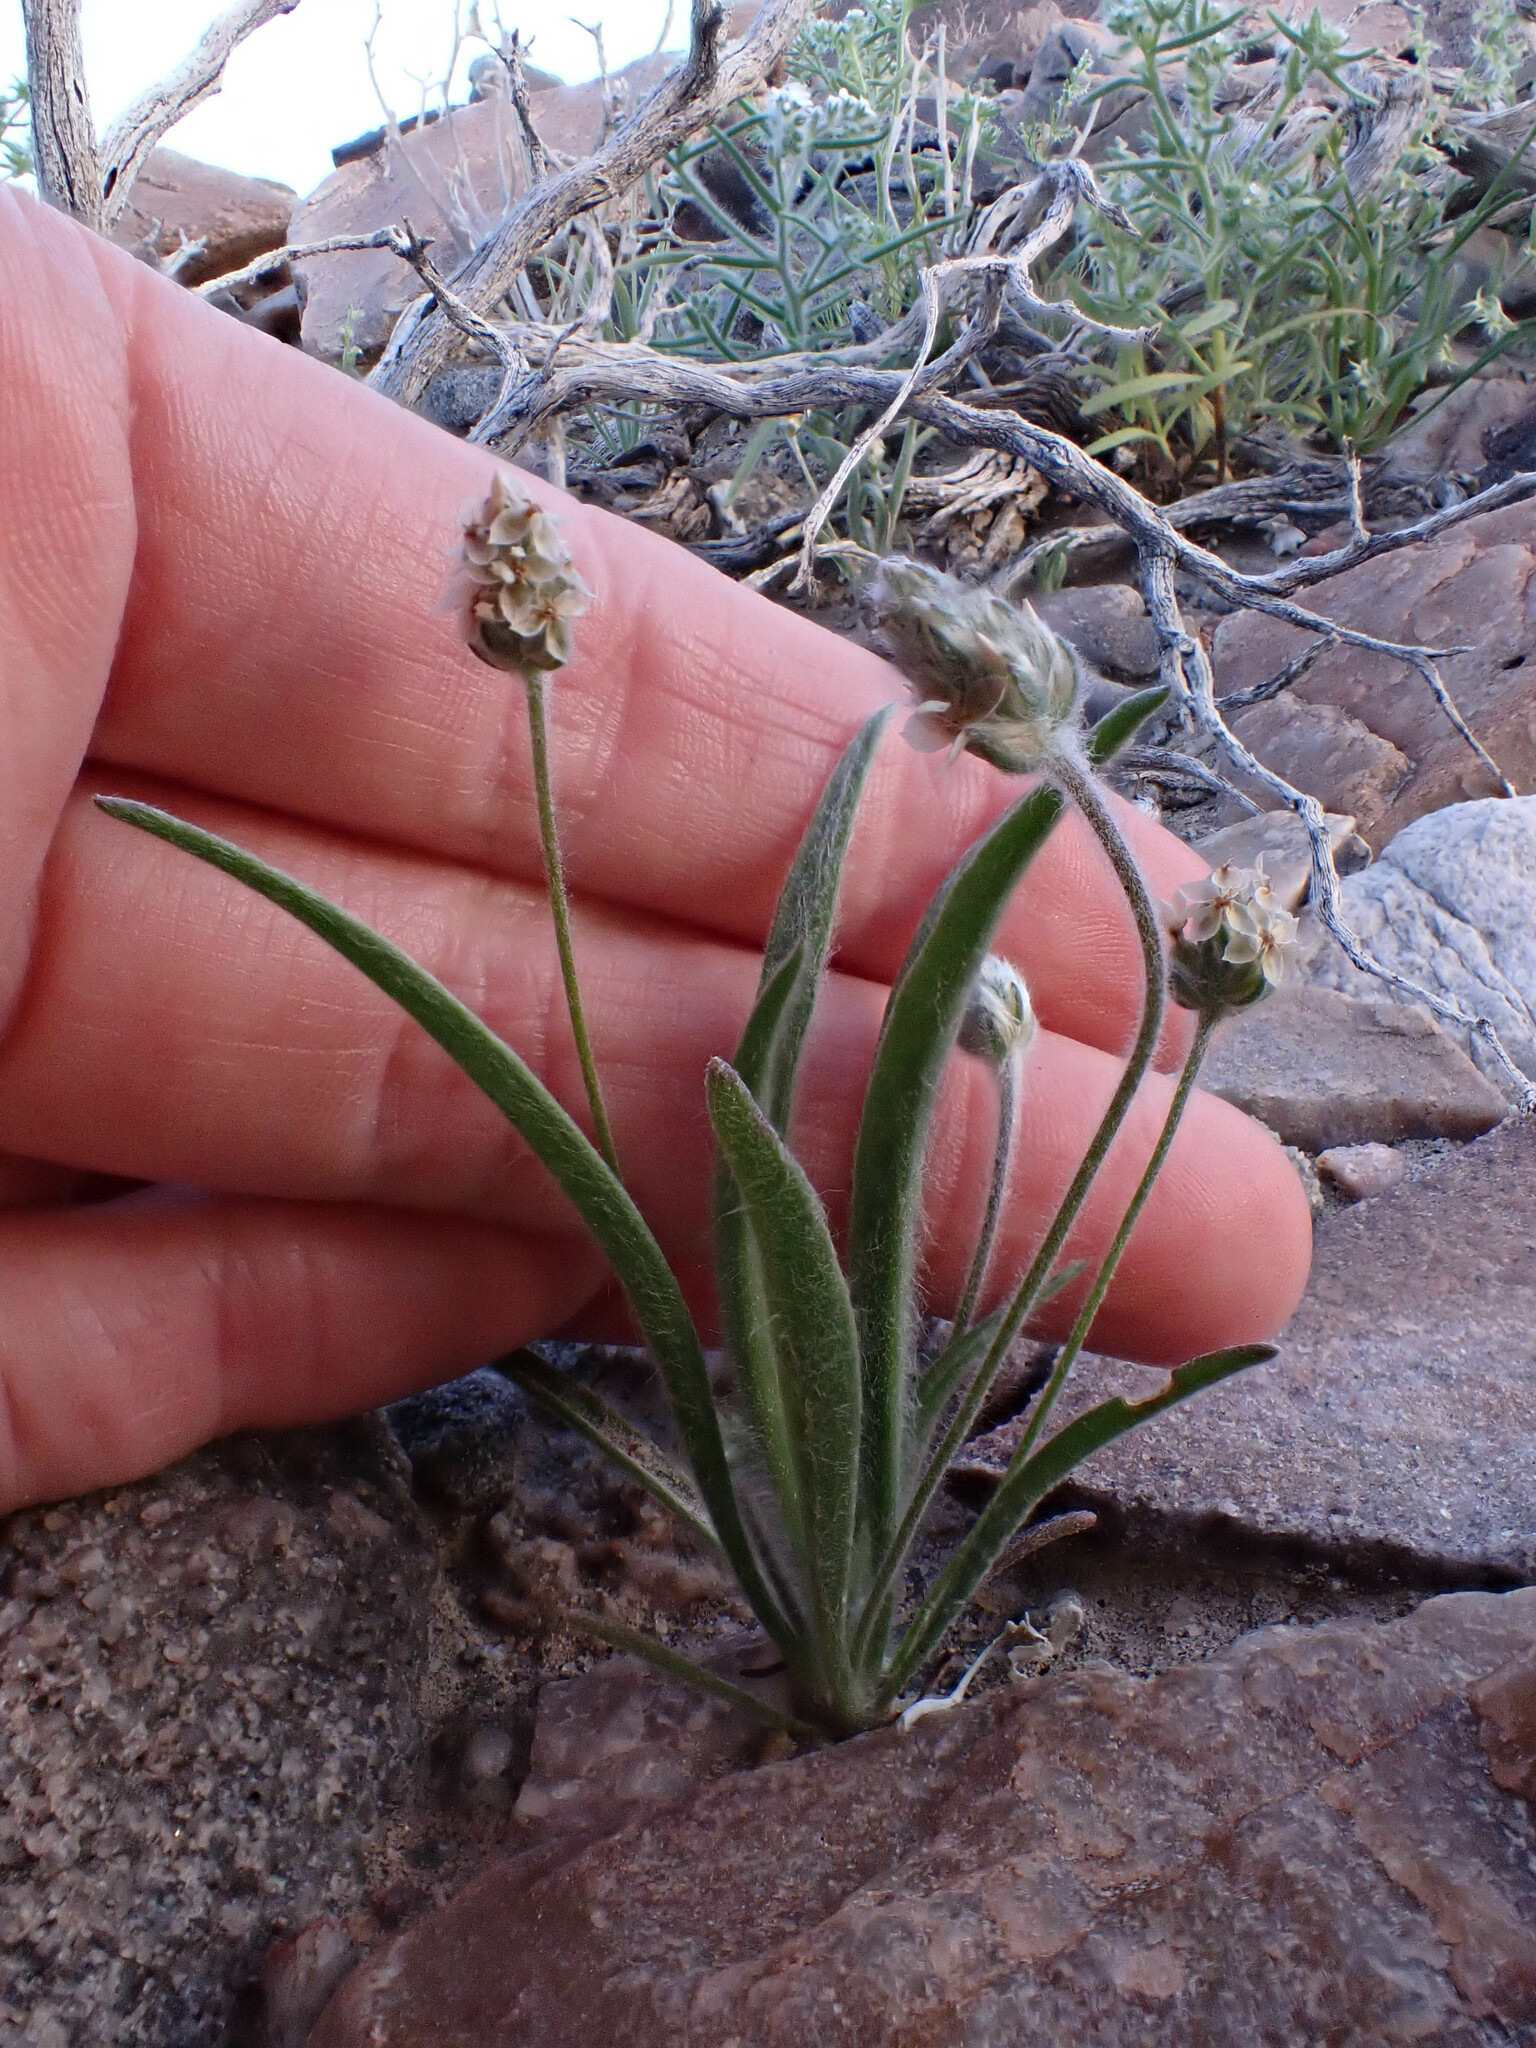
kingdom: Plantae
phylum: Tracheophyta
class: Magnoliopsida
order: Lamiales
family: Plantaginaceae
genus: Plantago
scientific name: Plantago ovata
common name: Blond plantain
